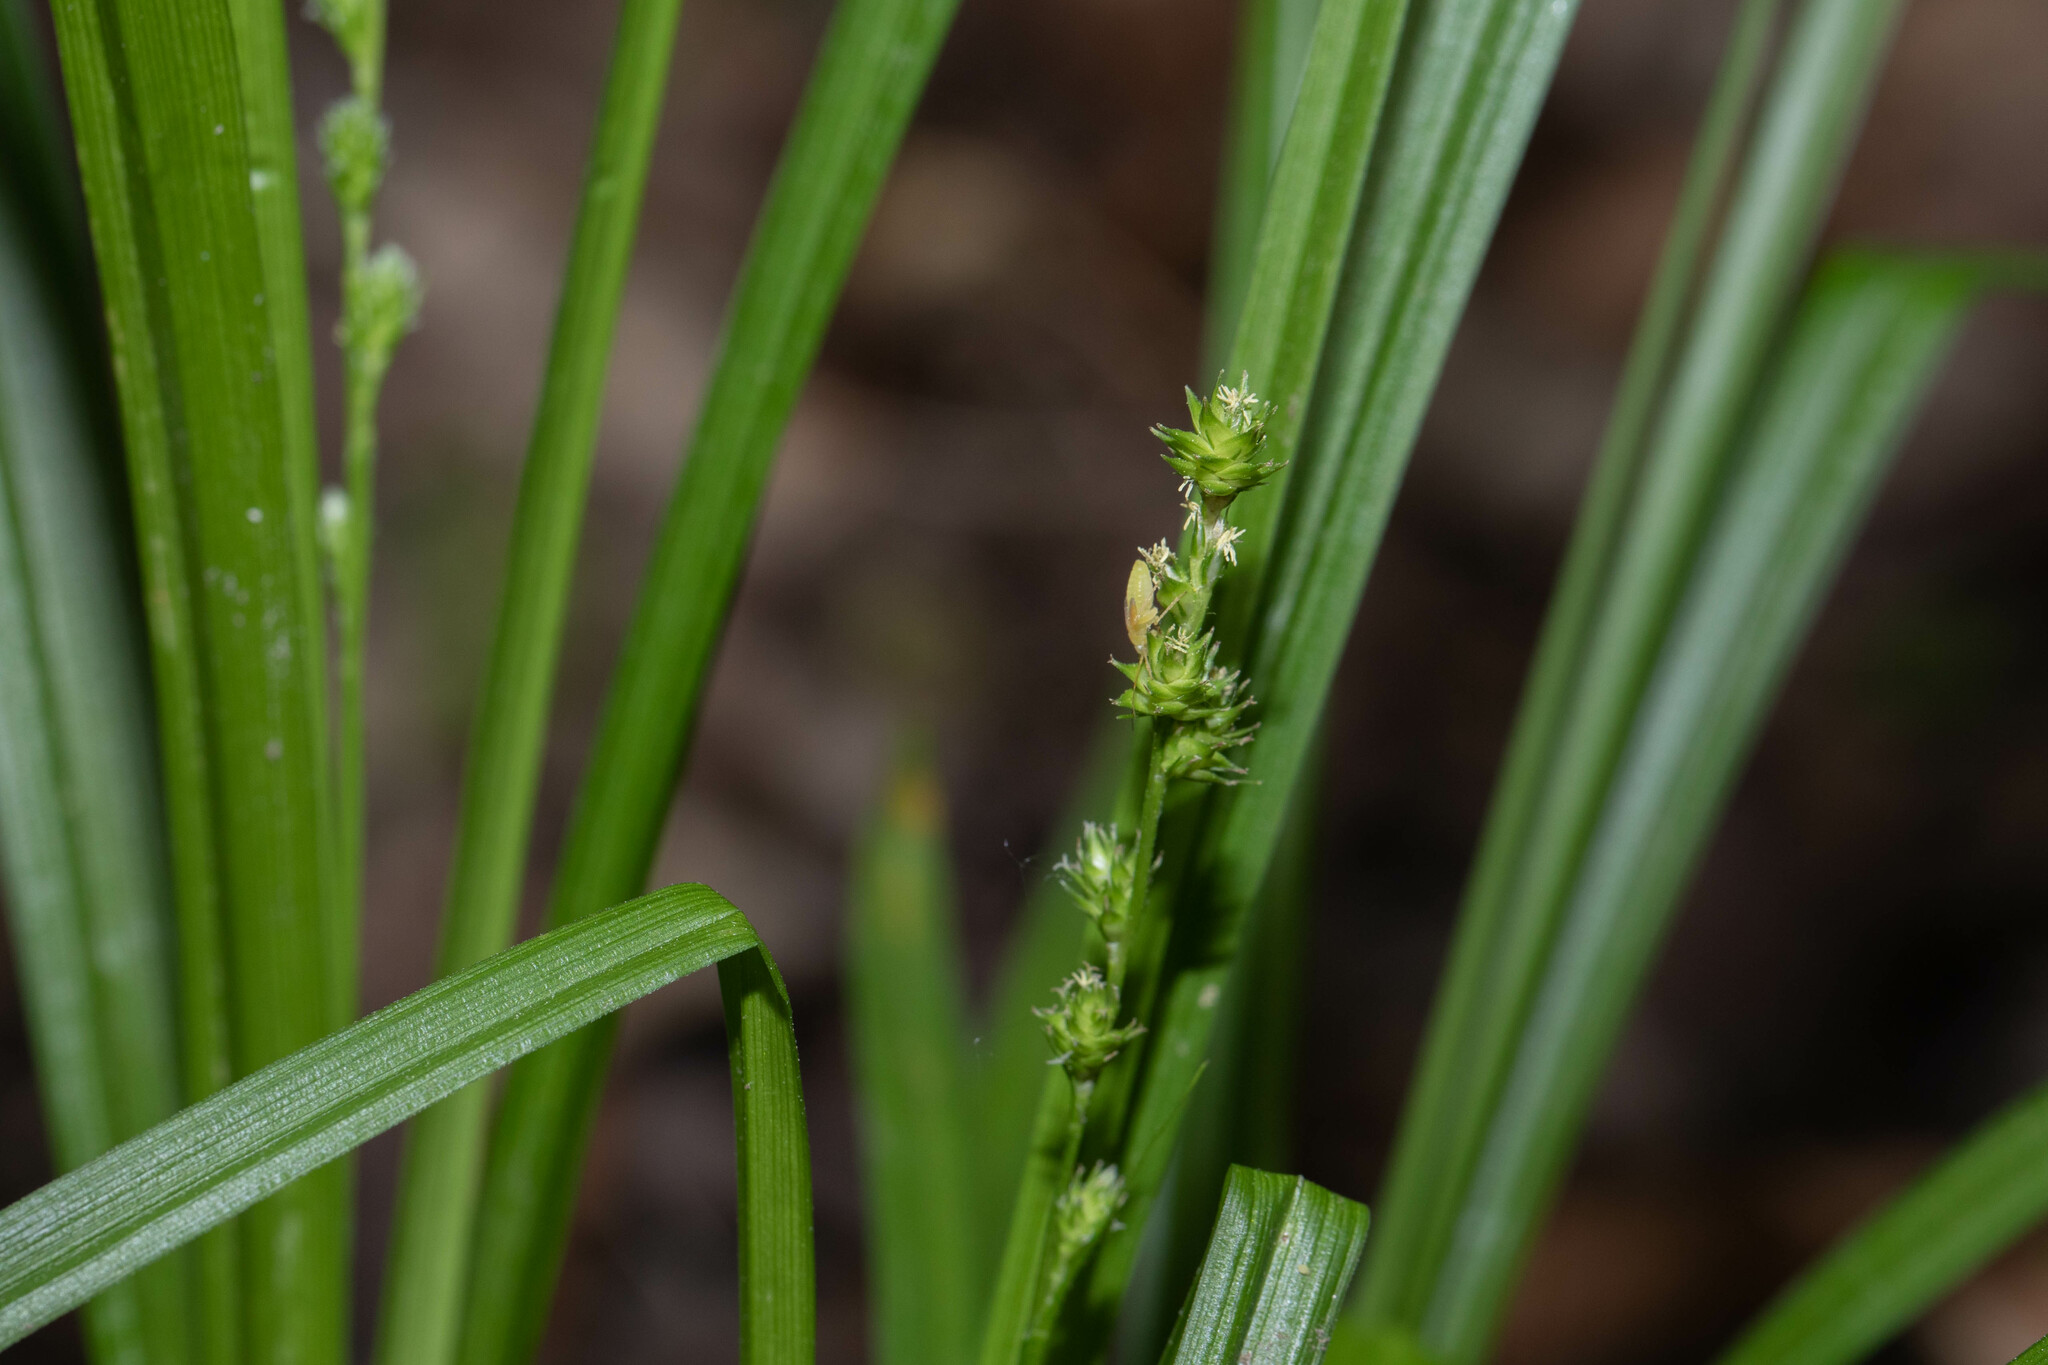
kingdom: Plantae
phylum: Tracheophyta
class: Liliopsida
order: Poales
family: Cyperaceae
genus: Carex
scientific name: Carex sparganioides
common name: Burreed sedge
